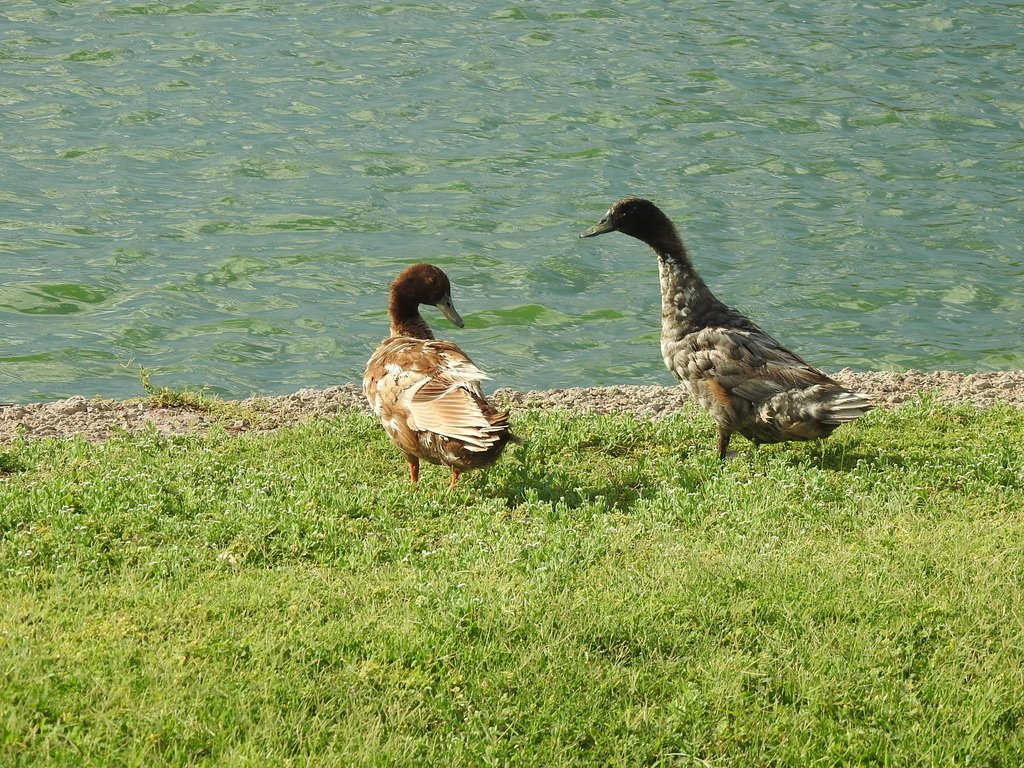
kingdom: Animalia
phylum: Chordata
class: Aves
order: Anseriformes
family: Anatidae
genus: Anas
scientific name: Anas platyrhynchos
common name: Mallard
